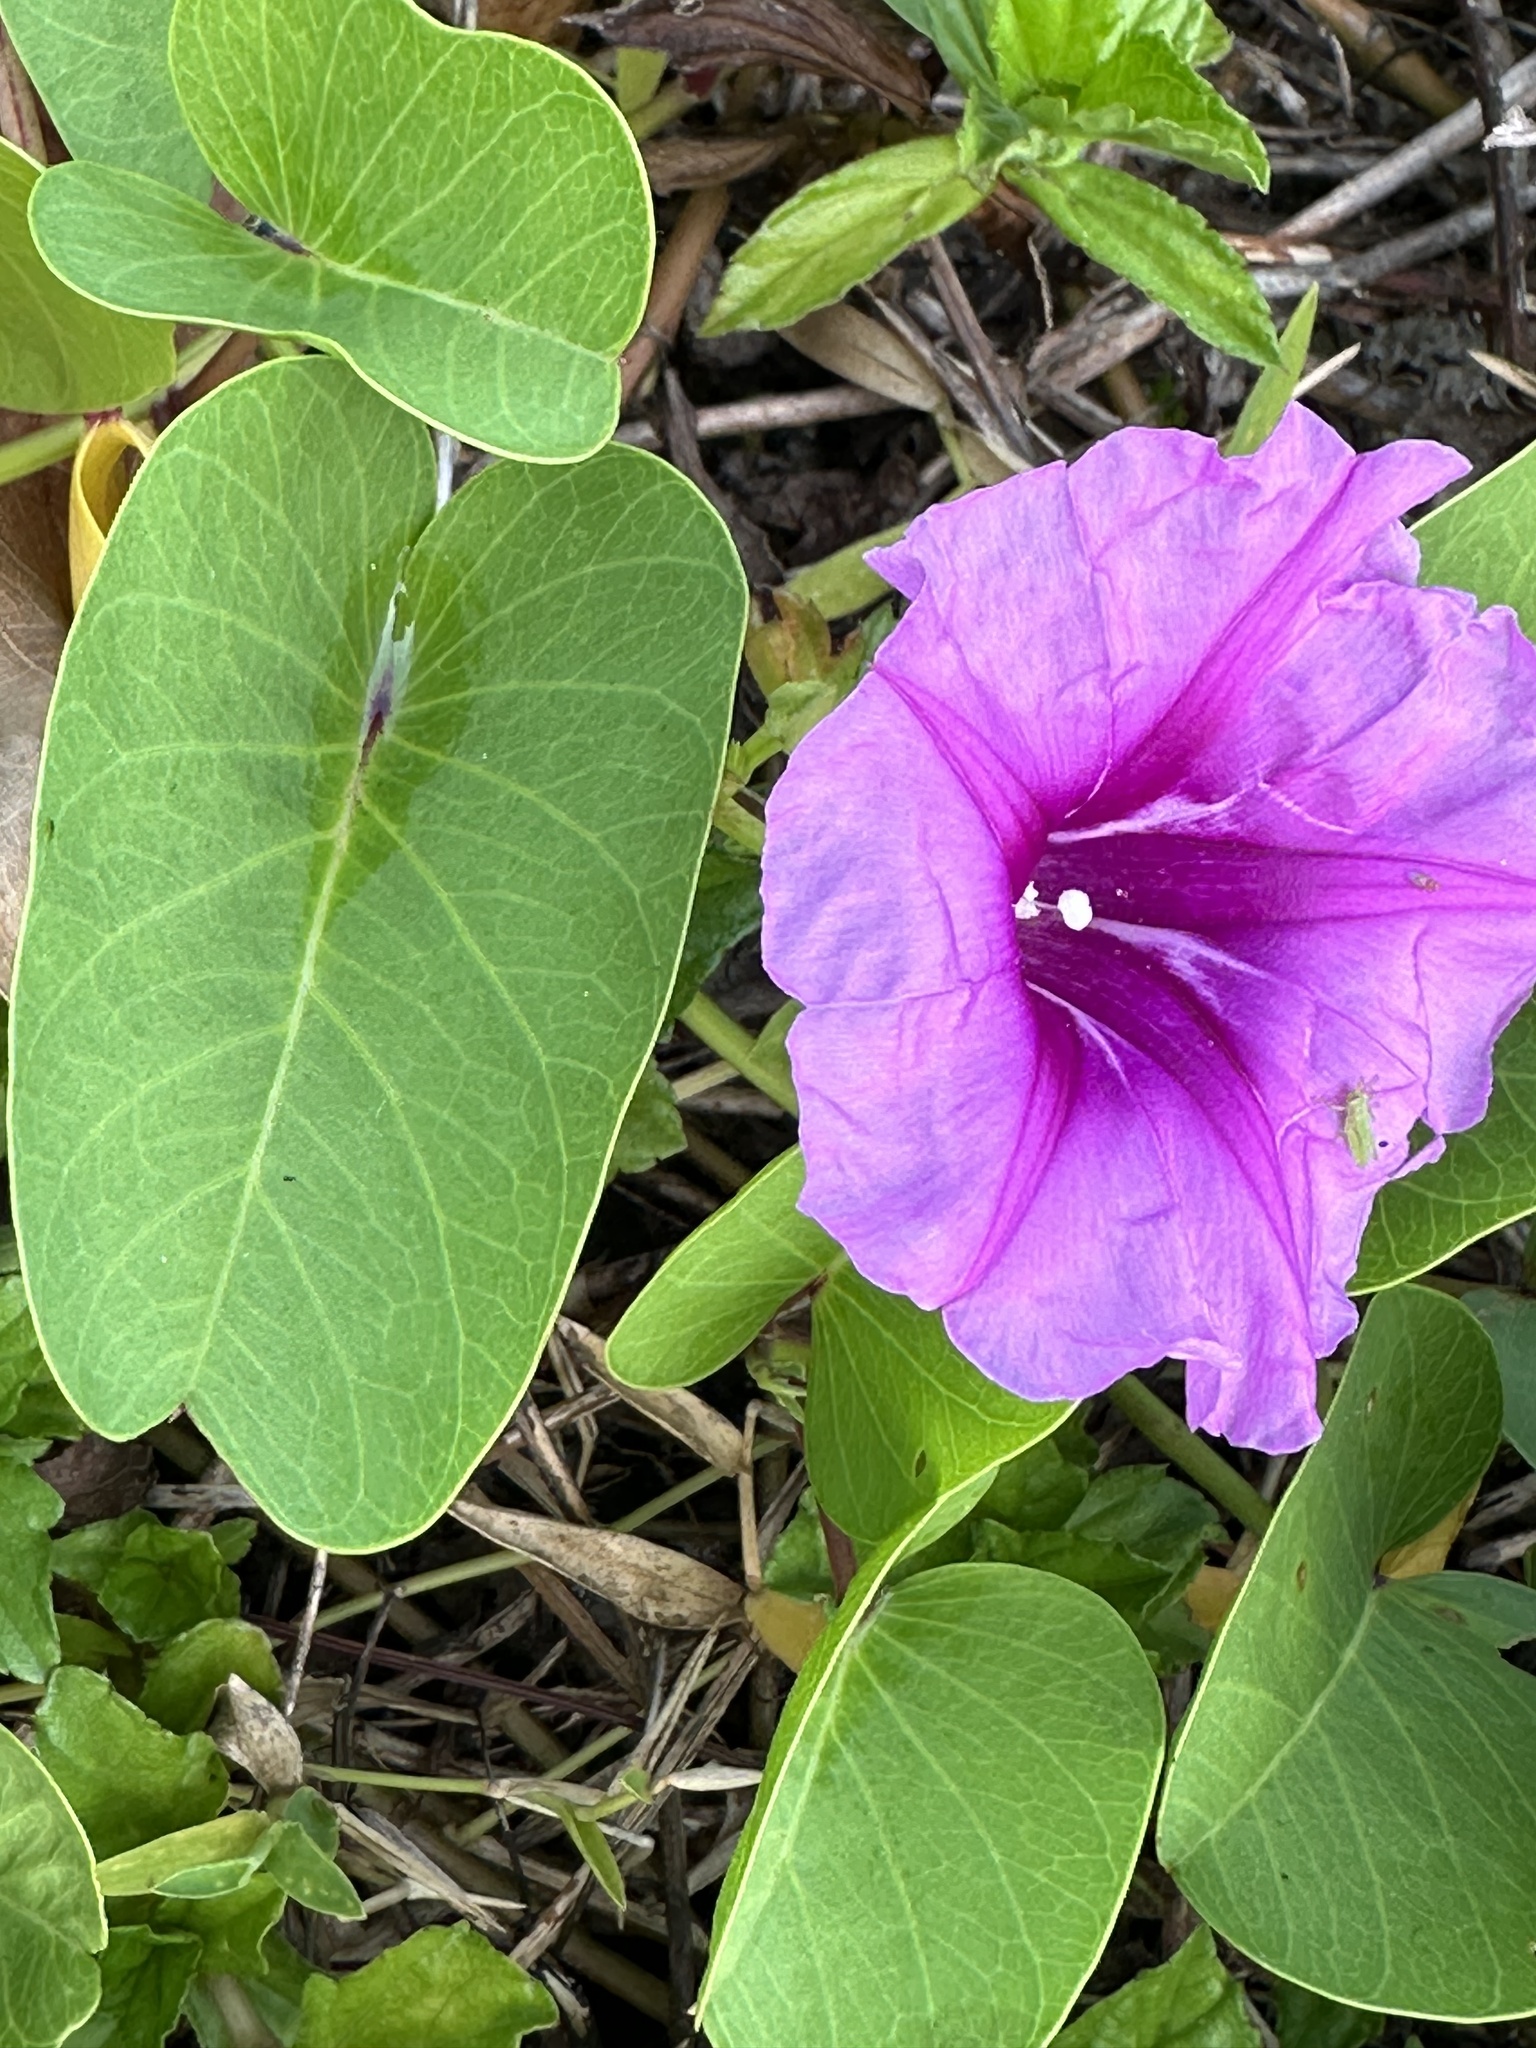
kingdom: Plantae
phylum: Tracheophyta
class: Magnoliopsida
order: Solanales
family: Convolvulaceae
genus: Ipomoea
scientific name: Ipomoea pes-caprae
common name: Beach morning glory
